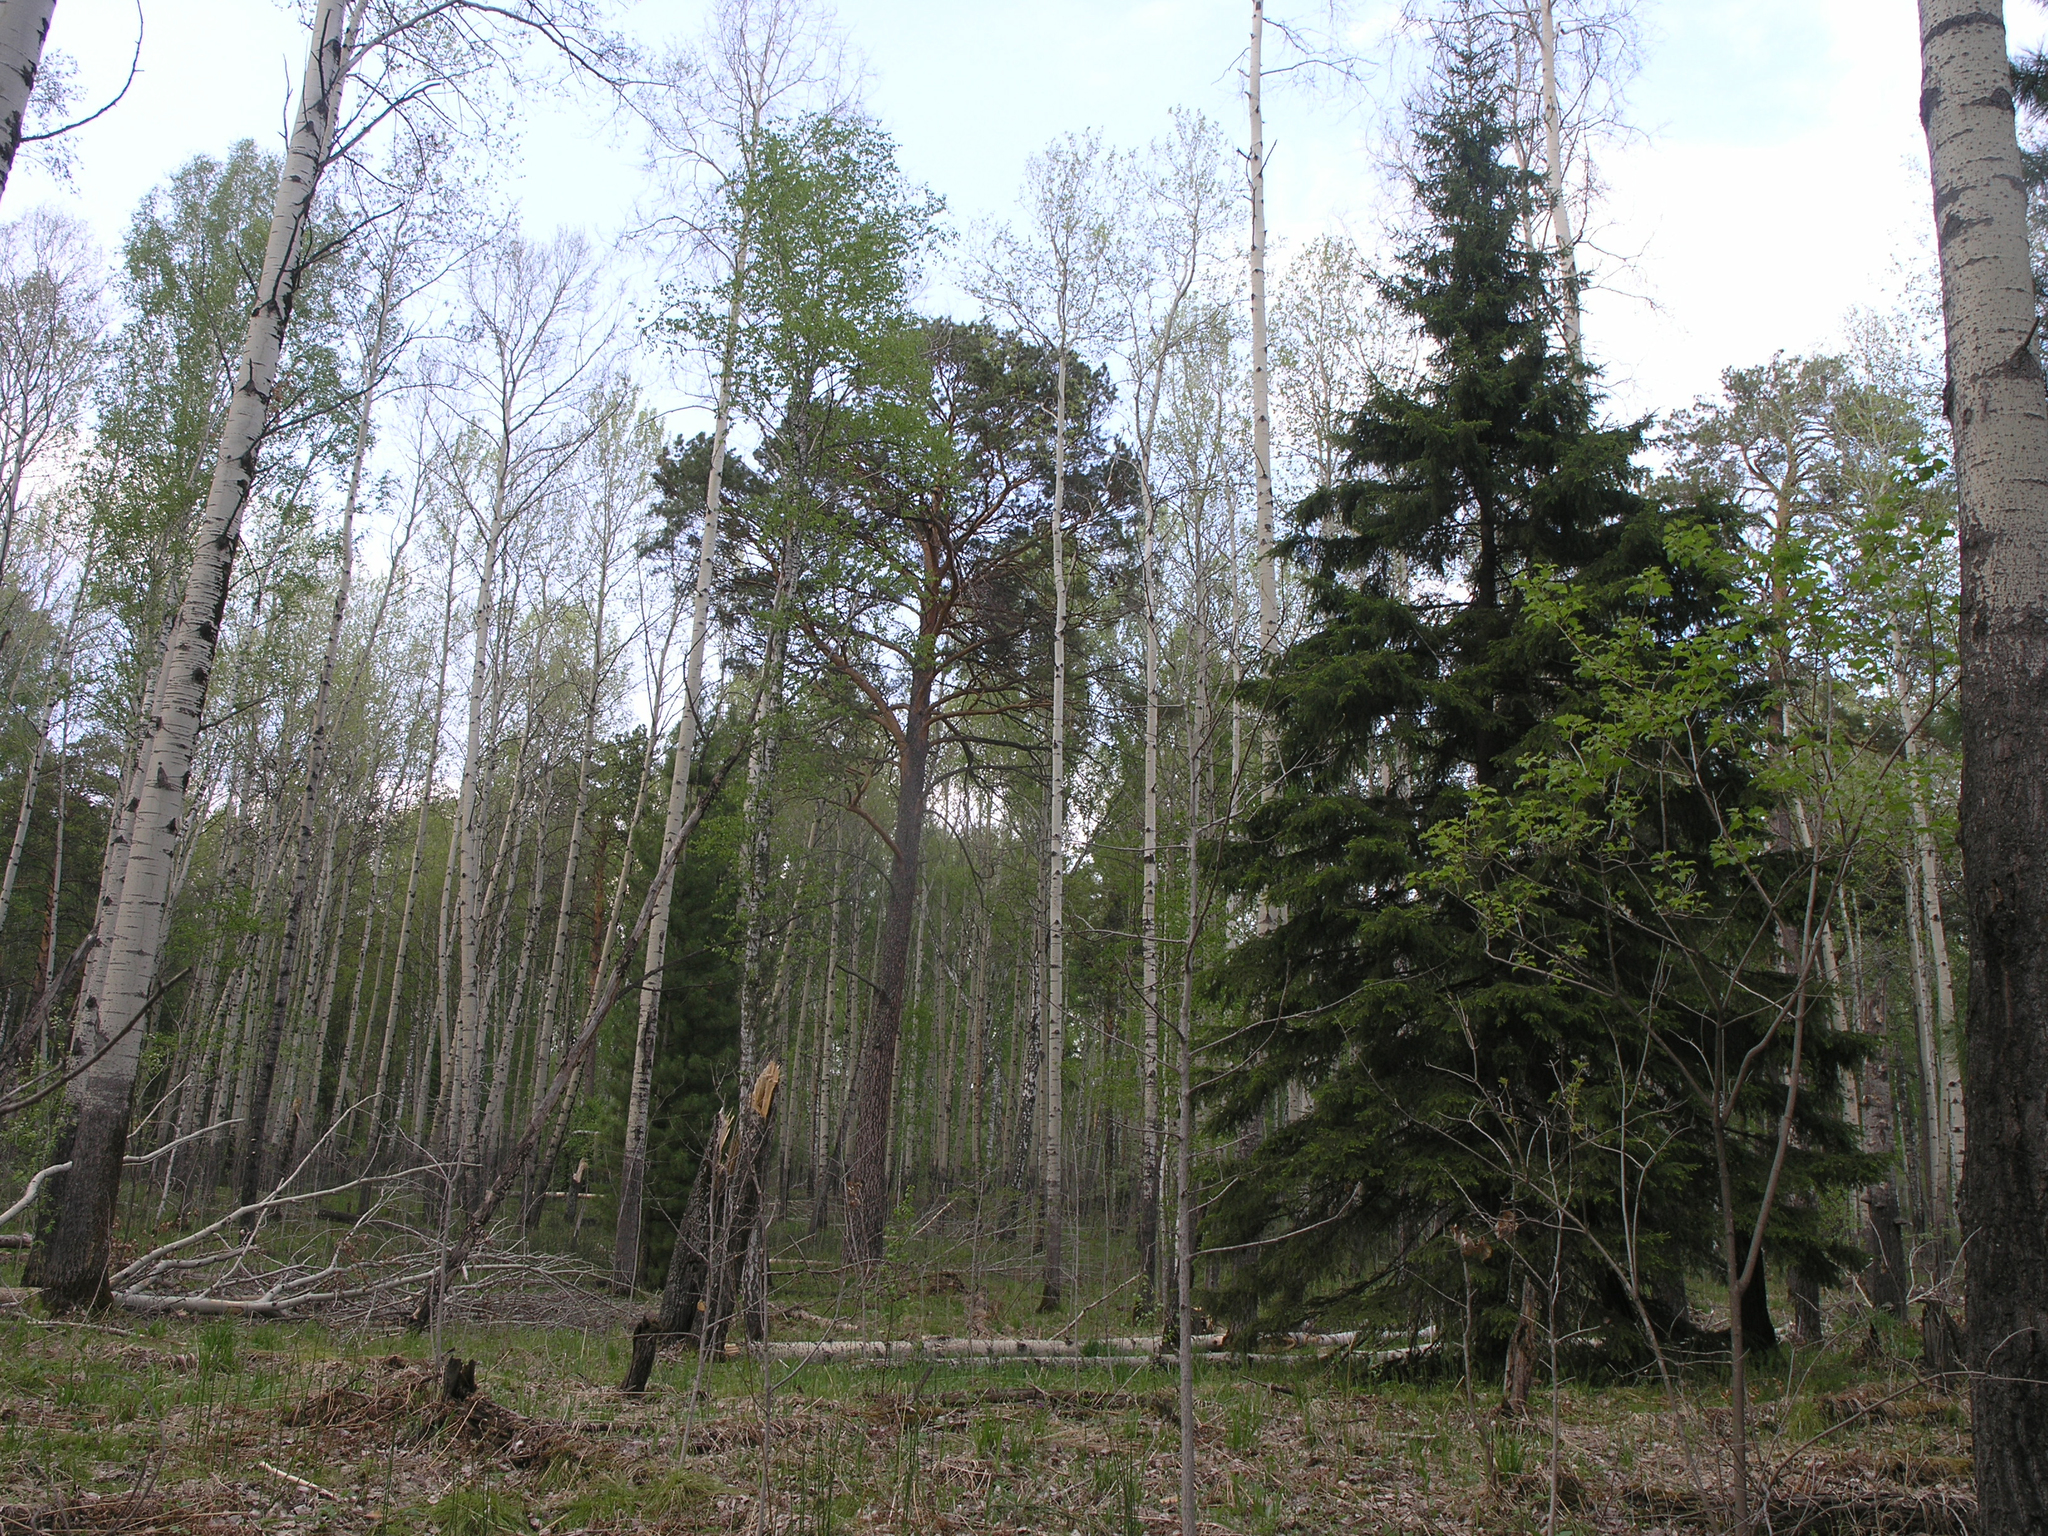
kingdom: Plantae
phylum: Tracheophyta
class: Pinopsida
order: Pinales
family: Pinaceae
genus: Picea
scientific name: Picea obovata
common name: Siberian spruce
